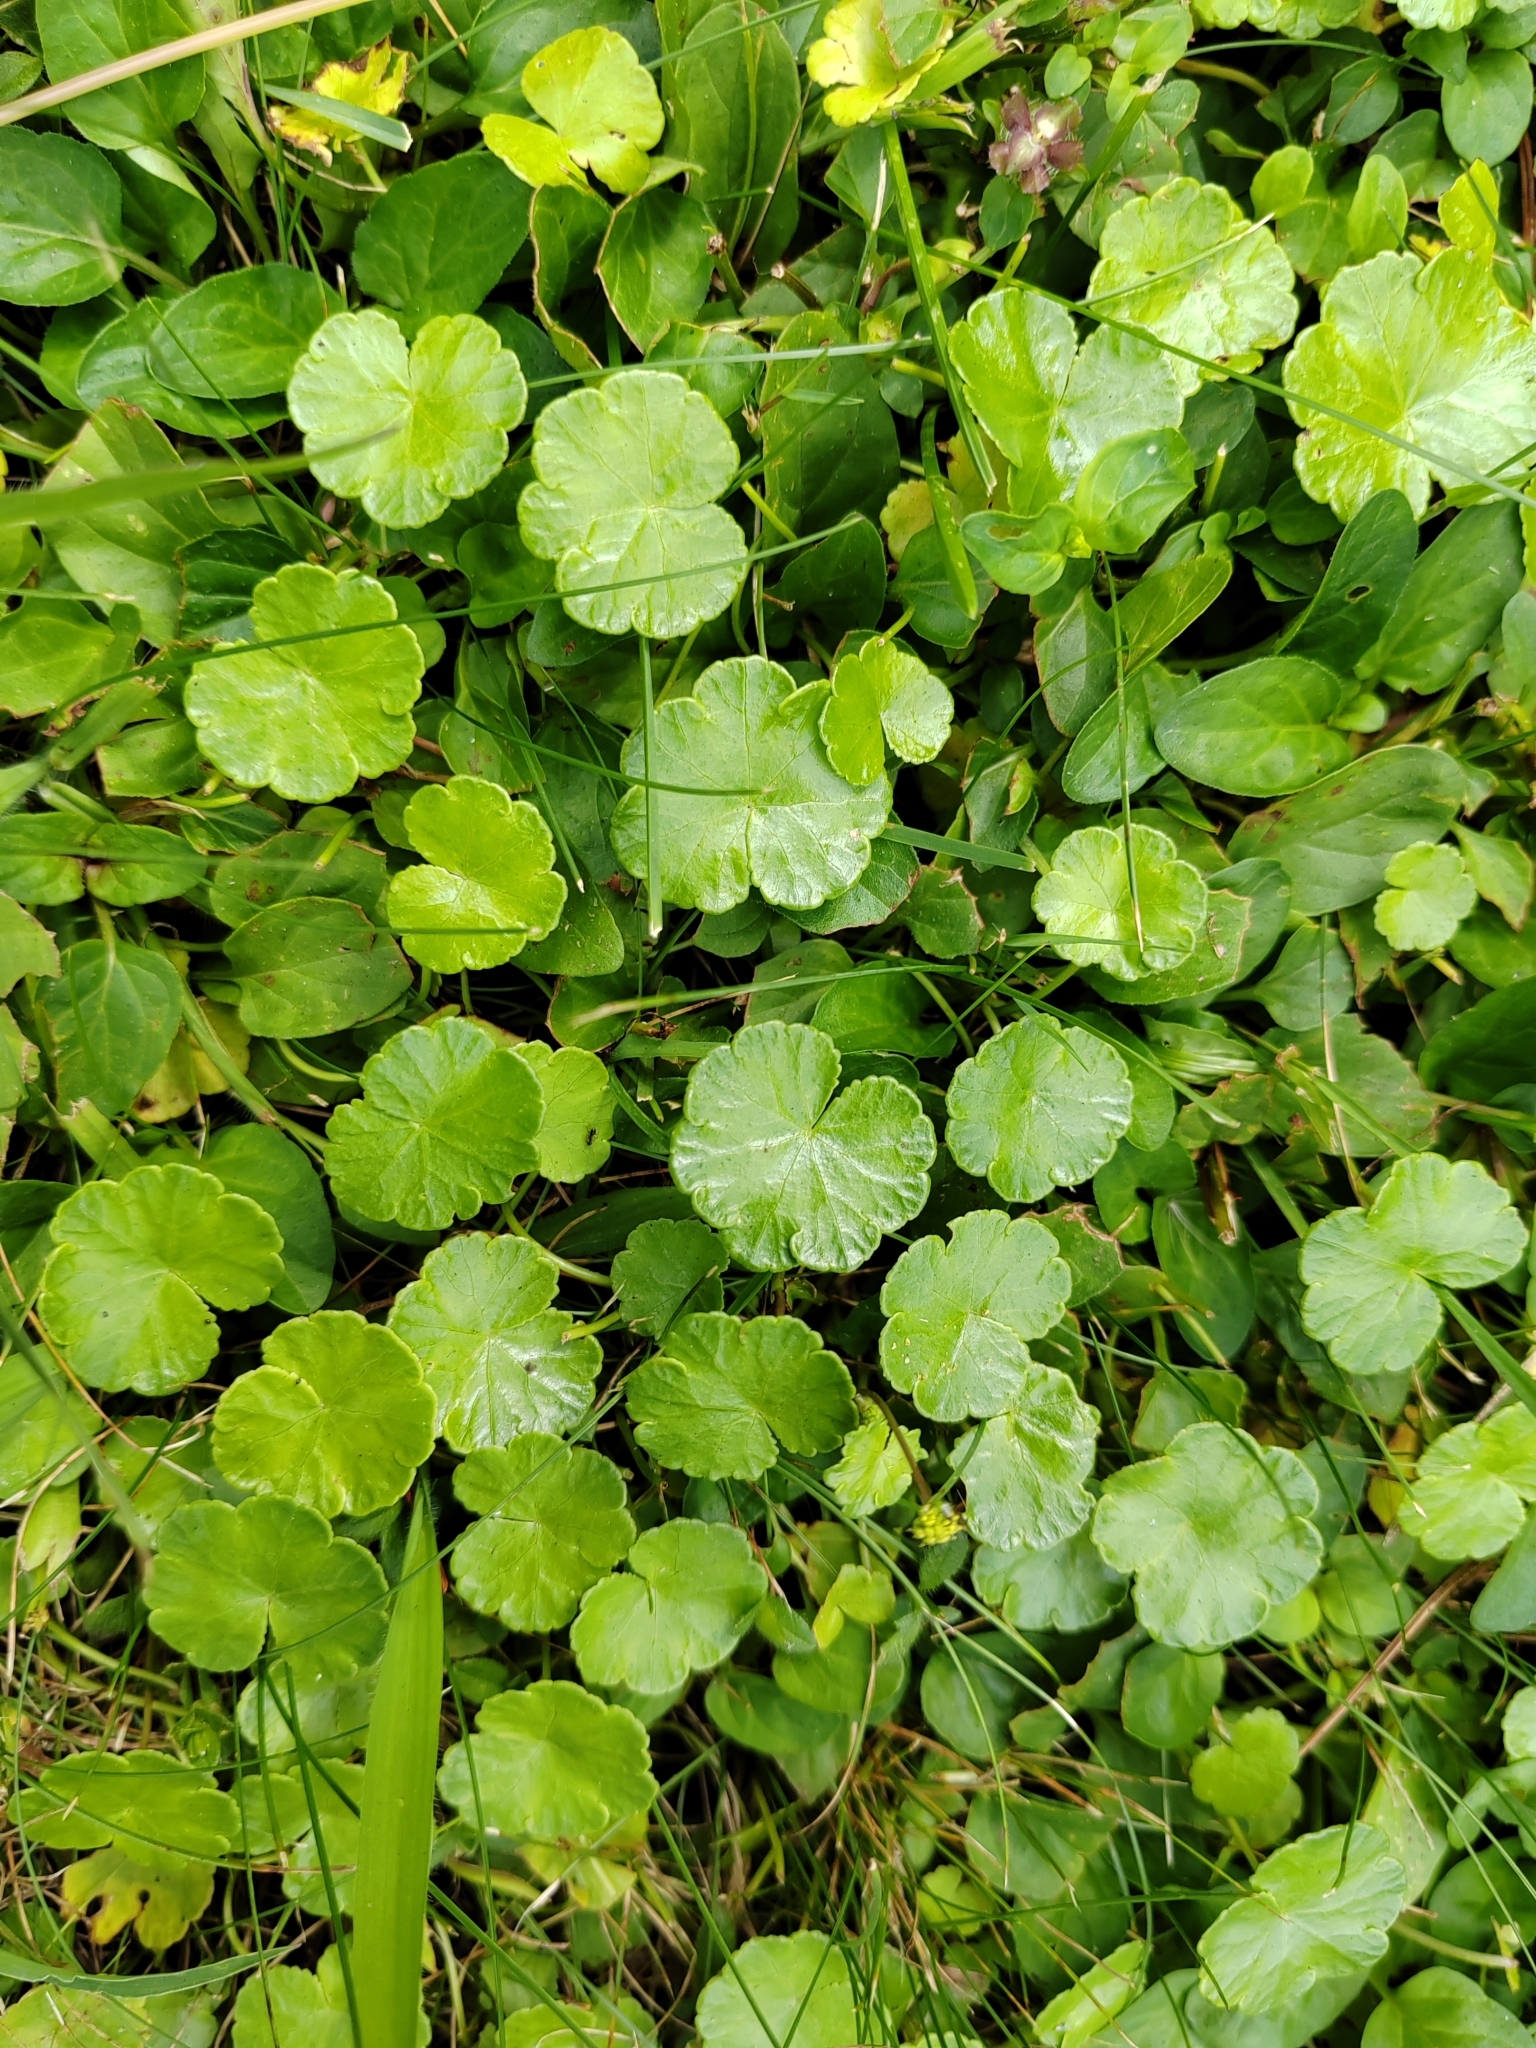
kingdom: Plantae
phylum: Tracheophyta
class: Magnoliopsida
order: Lamiales
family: Lamiaceae
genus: Glechoma
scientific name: Glechoma hederacea
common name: Ground ivy
